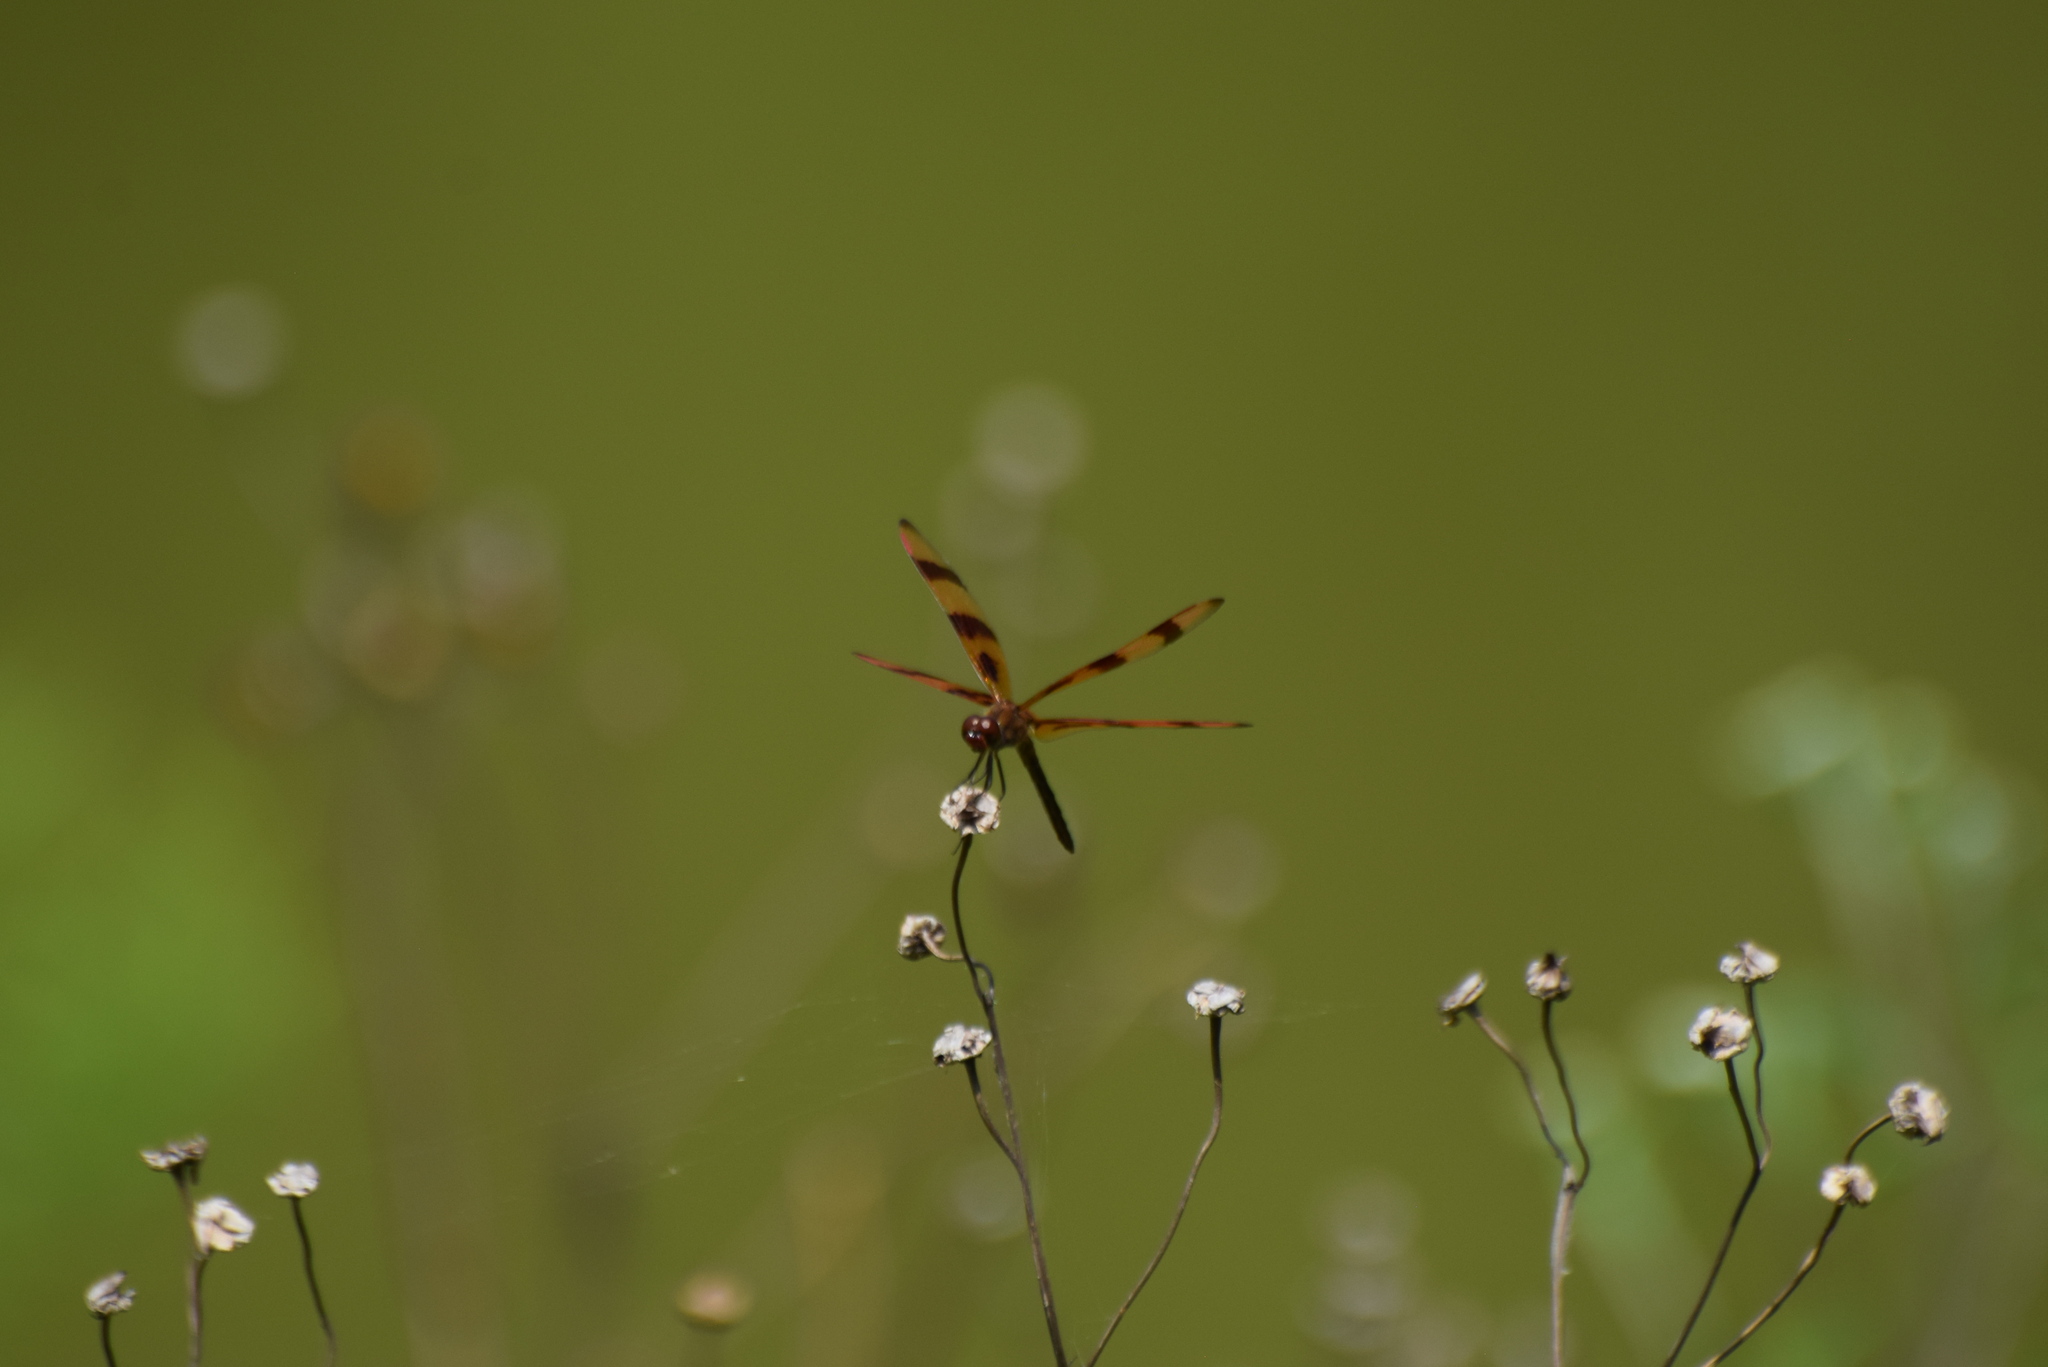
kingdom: Animalia
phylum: Arthropoda
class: Insecta
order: Odonata
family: Libellulidae
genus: Celithemis
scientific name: Celithemis eponina
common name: Halloween pennant
